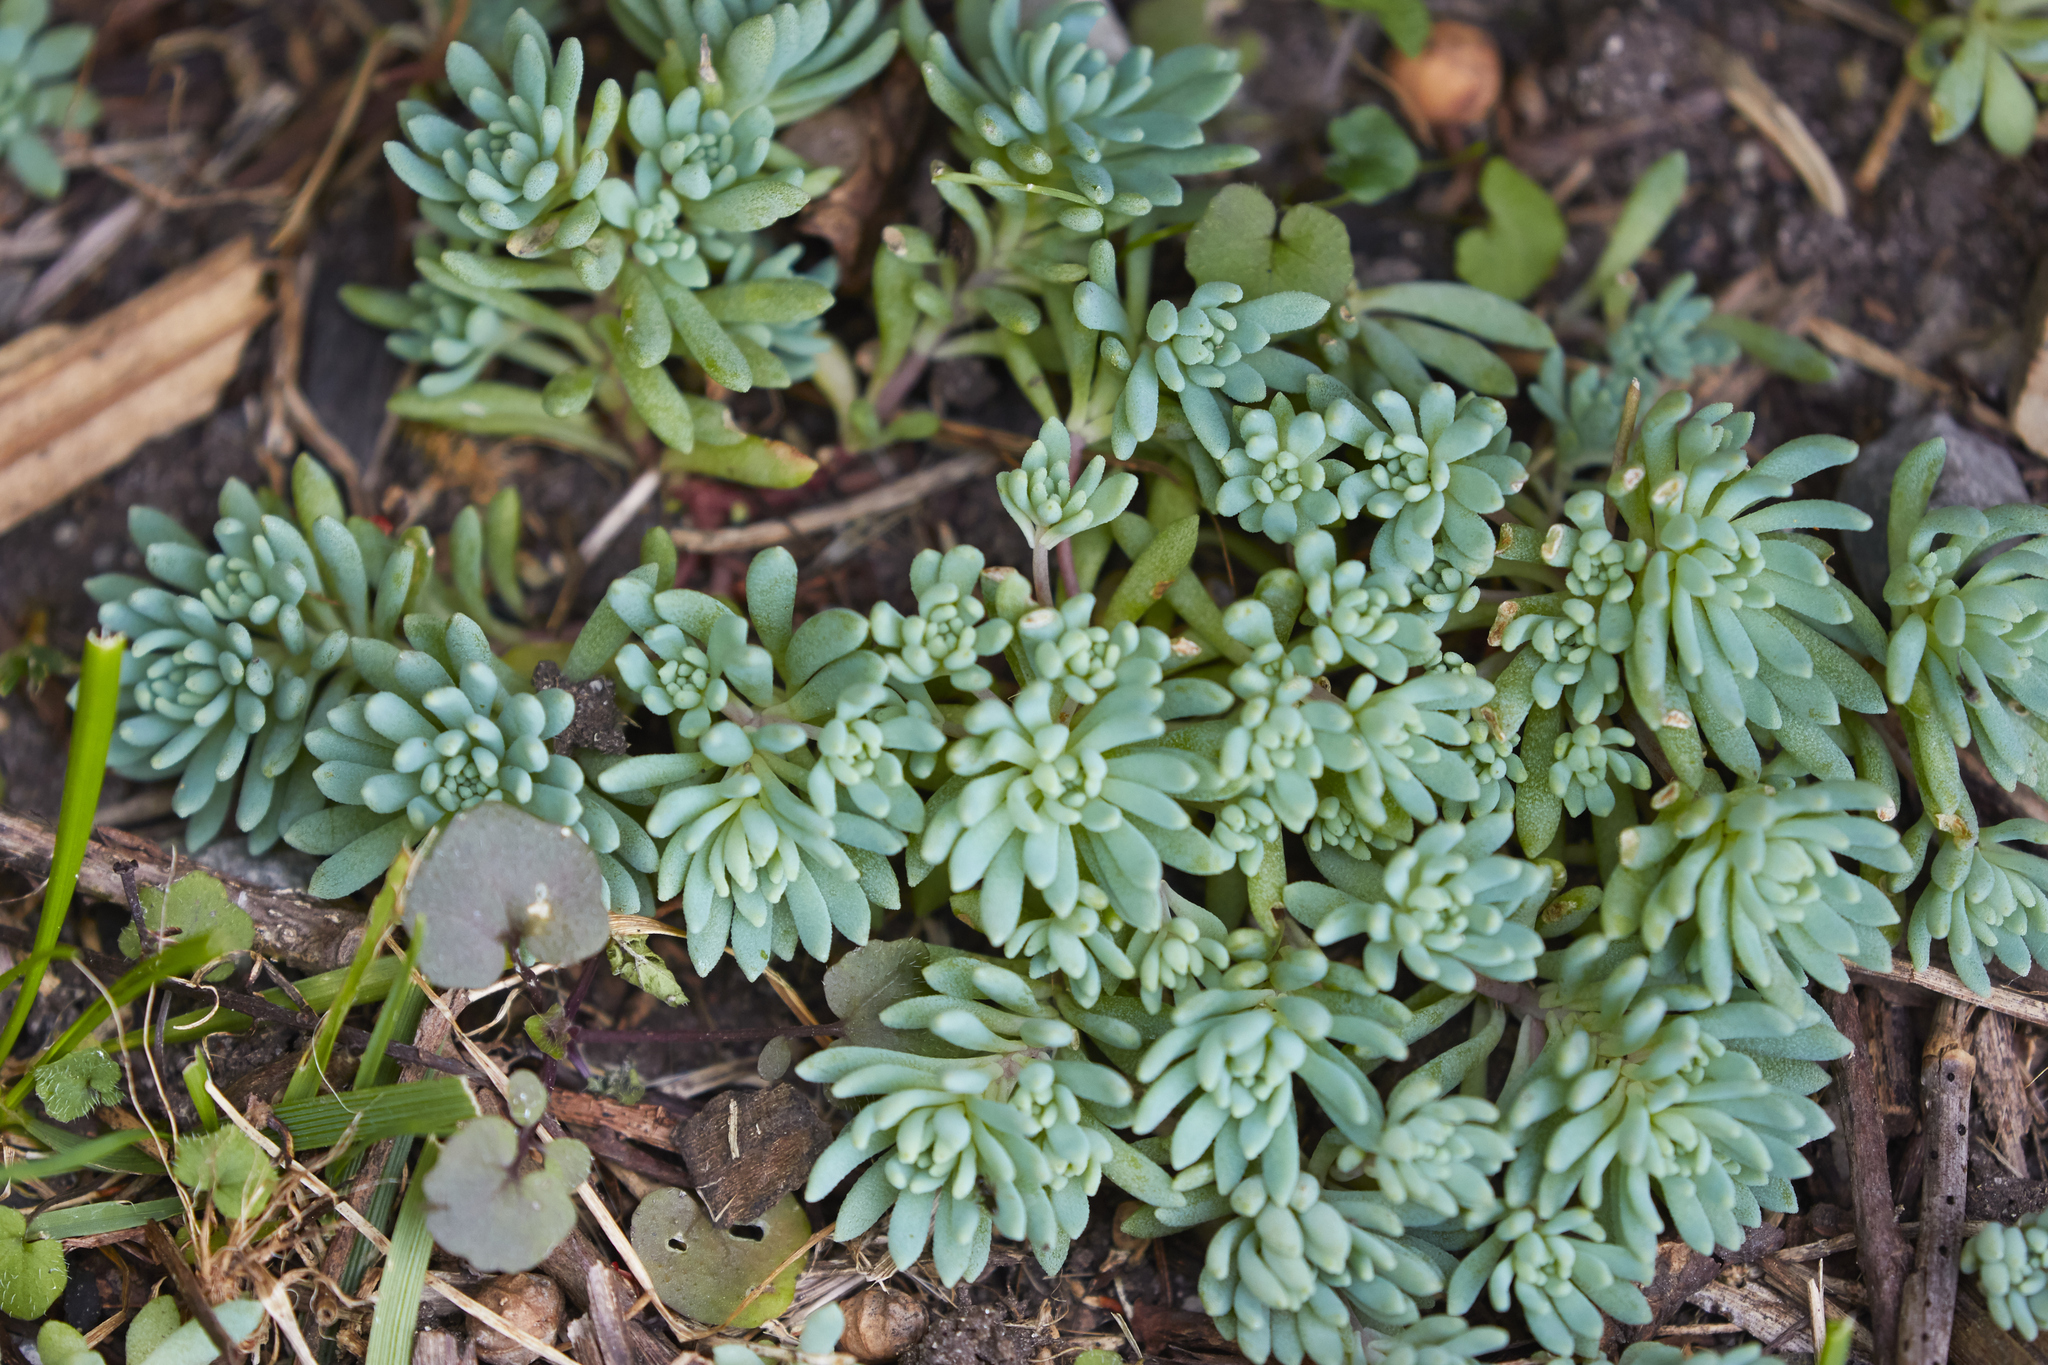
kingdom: Plantae
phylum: Tracheophyta
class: Magnoliopsida
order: Saxifragales
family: Crassulaceae
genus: Sedum
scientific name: Sedum hispanicum
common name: Spanish stonecrop
